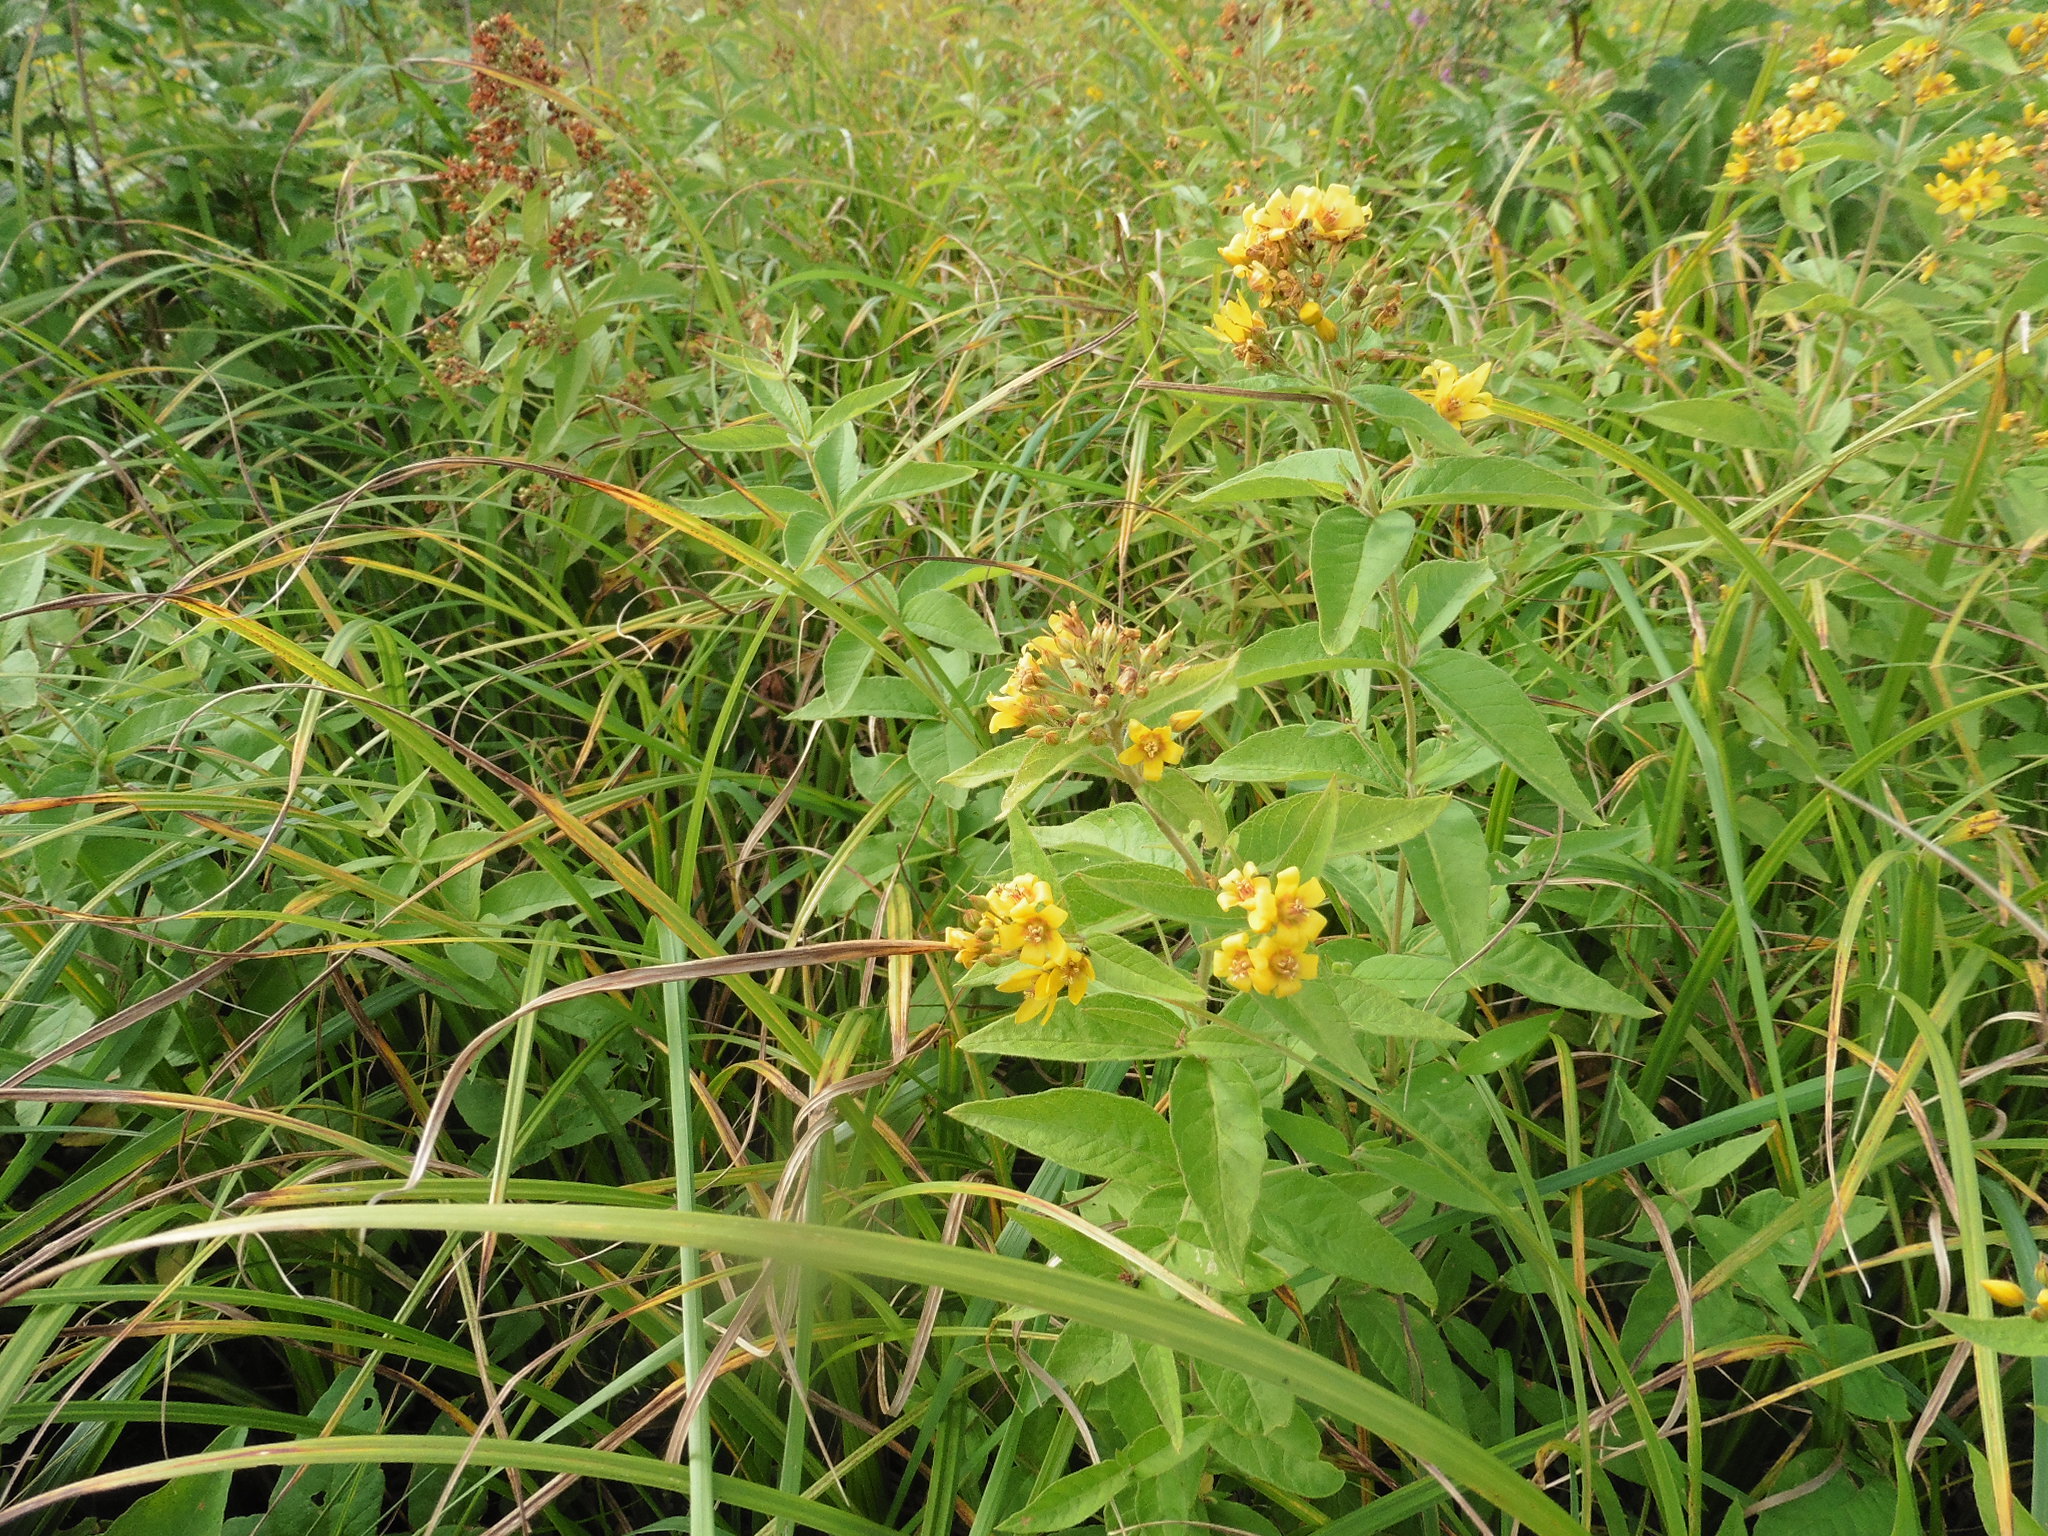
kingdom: Plantae
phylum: Tracheophyta
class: Magnoliopsida
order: Ericales
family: Primulaceae
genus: Lysimachia
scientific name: Lysimachia vulgaris
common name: Yellow loosestrife
